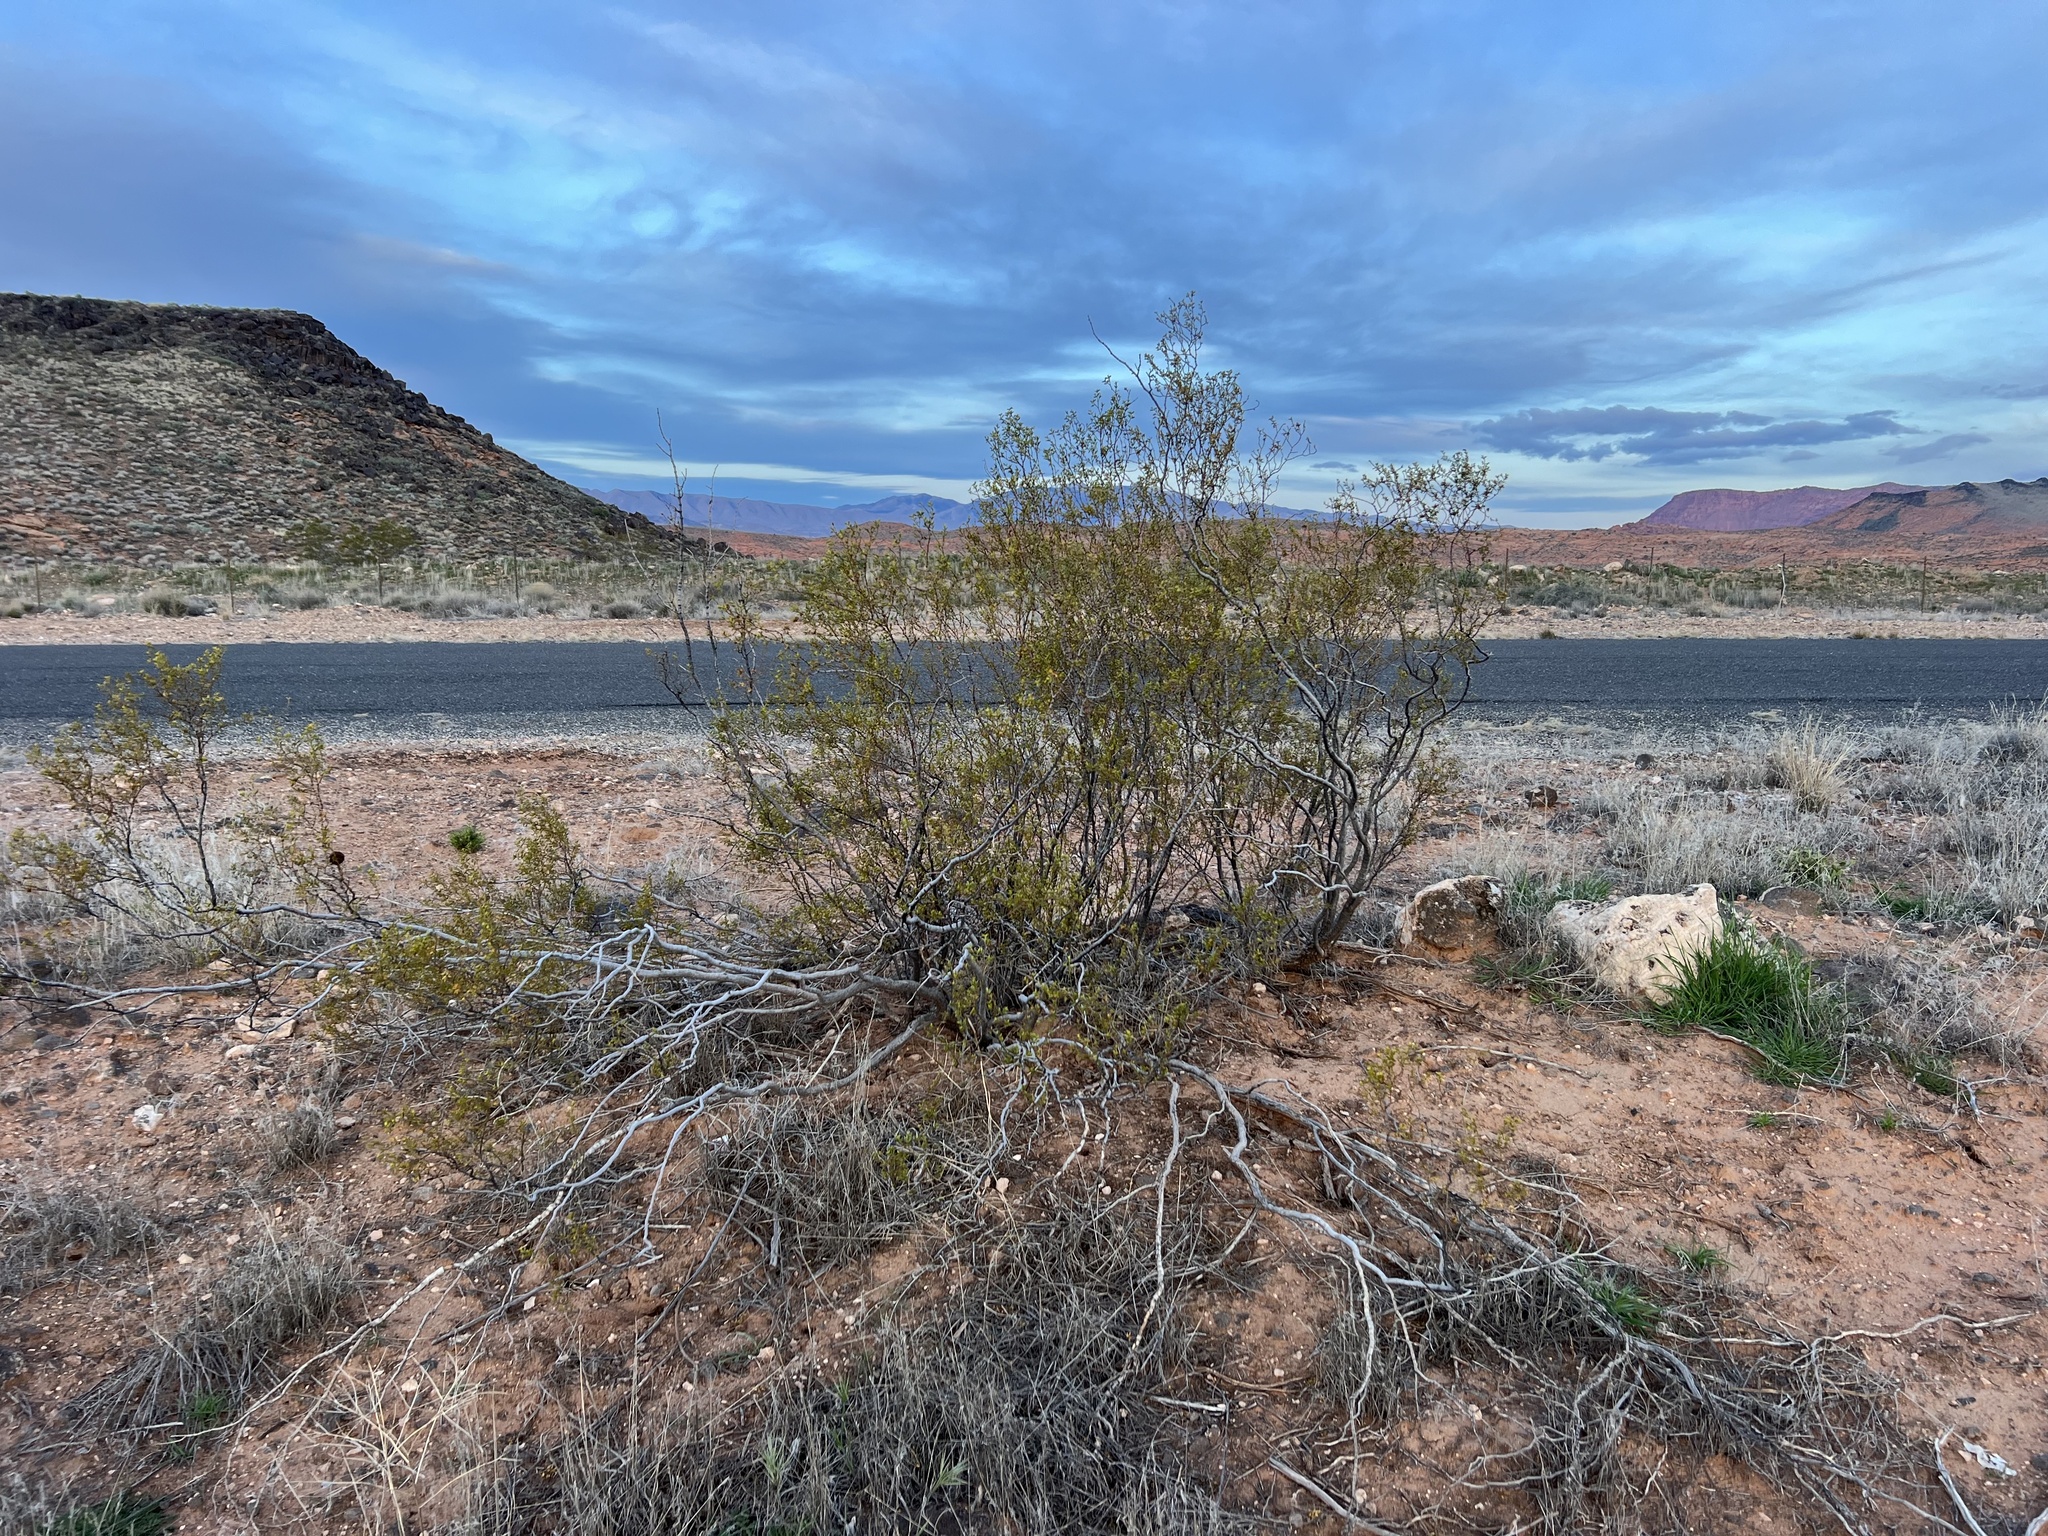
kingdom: Plantae
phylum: Tracheophyta
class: Magnoliopsida
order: Zygophyllales
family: Zygophyllaceae
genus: Larrea
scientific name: Larrea tridentata
